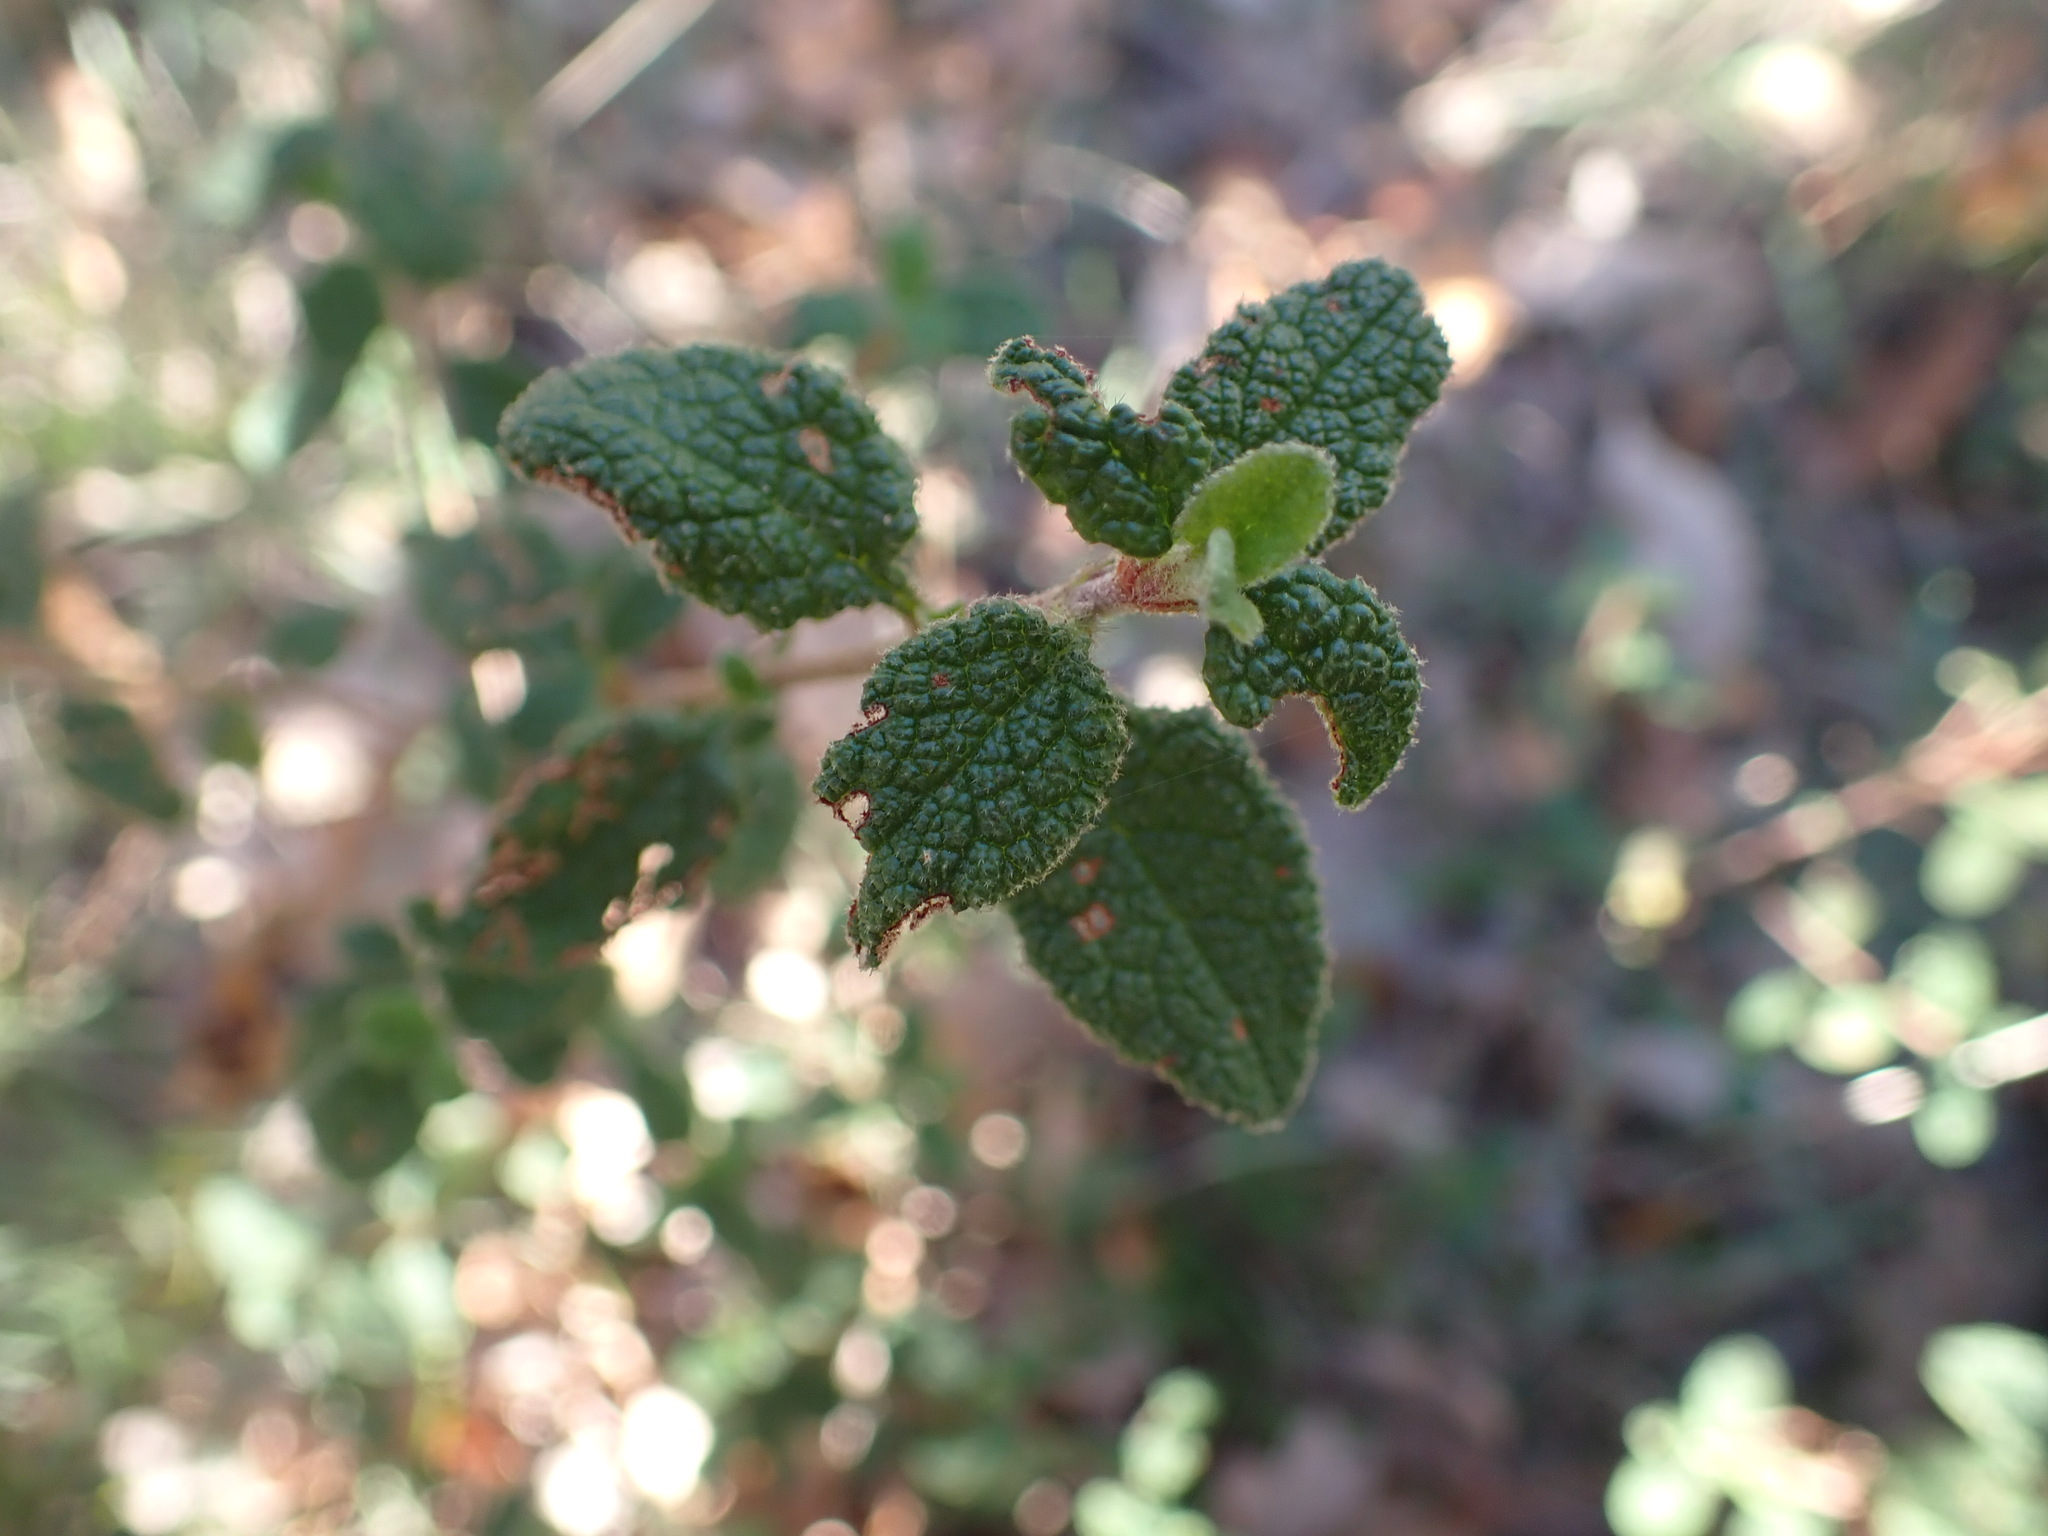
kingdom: Plantae
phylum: Tracheophyta
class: Magnoliopsida
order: Malvales
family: Cistaceae
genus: Cistus
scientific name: Cistus salviifolius
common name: Salvia cistus
